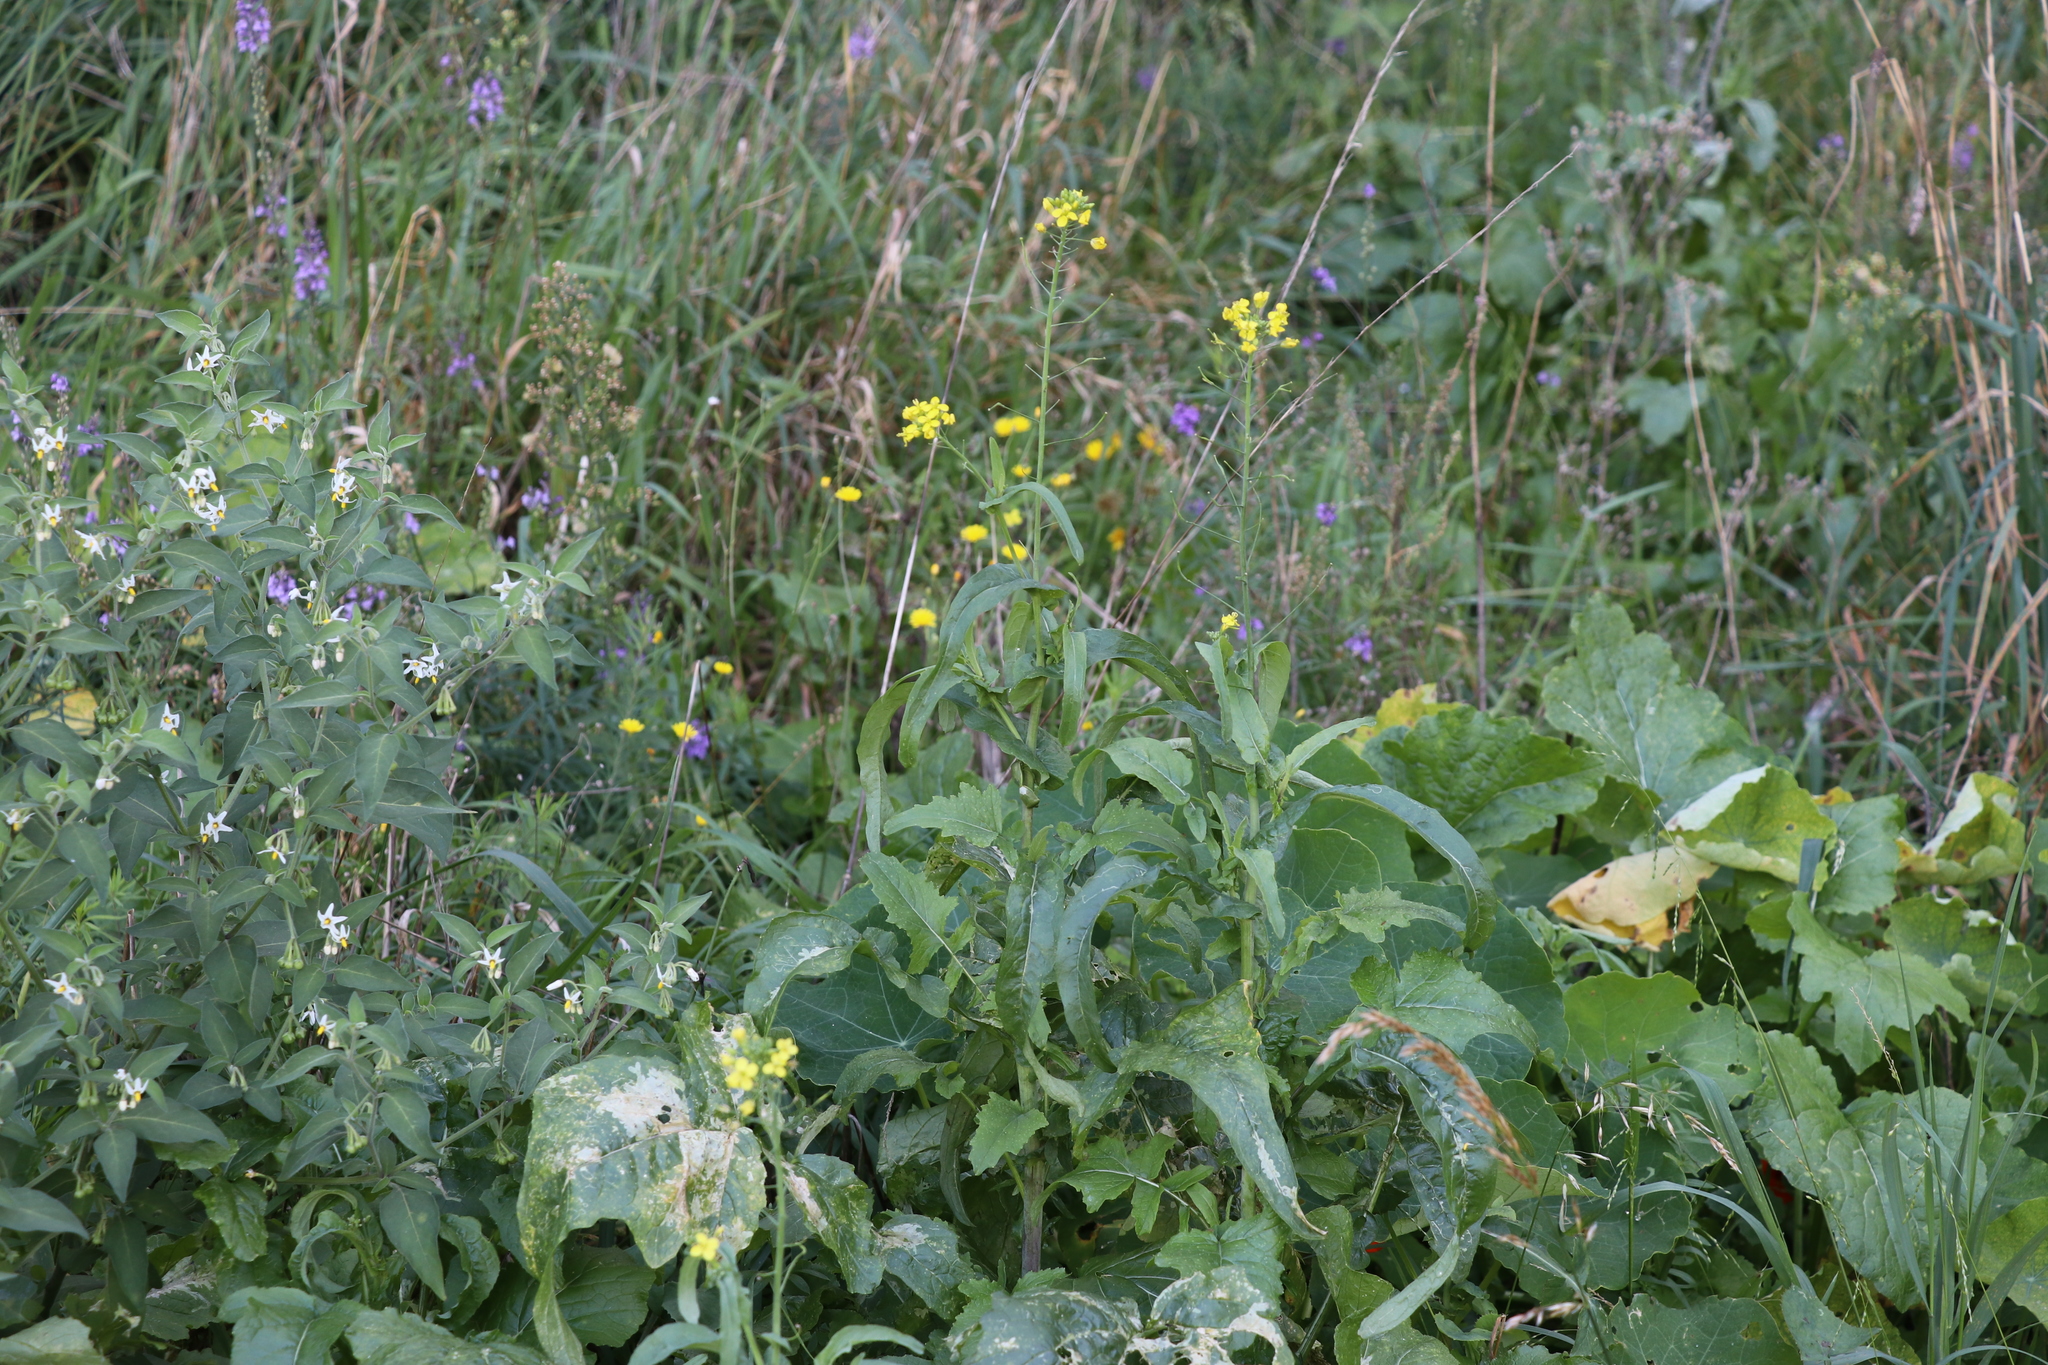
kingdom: Plantae
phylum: Tracheophyta
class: Magnoliopsida
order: Brassicales
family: Brassicaceae
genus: Raphanus
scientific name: Raphanus raphanistrum
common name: Wild radish
